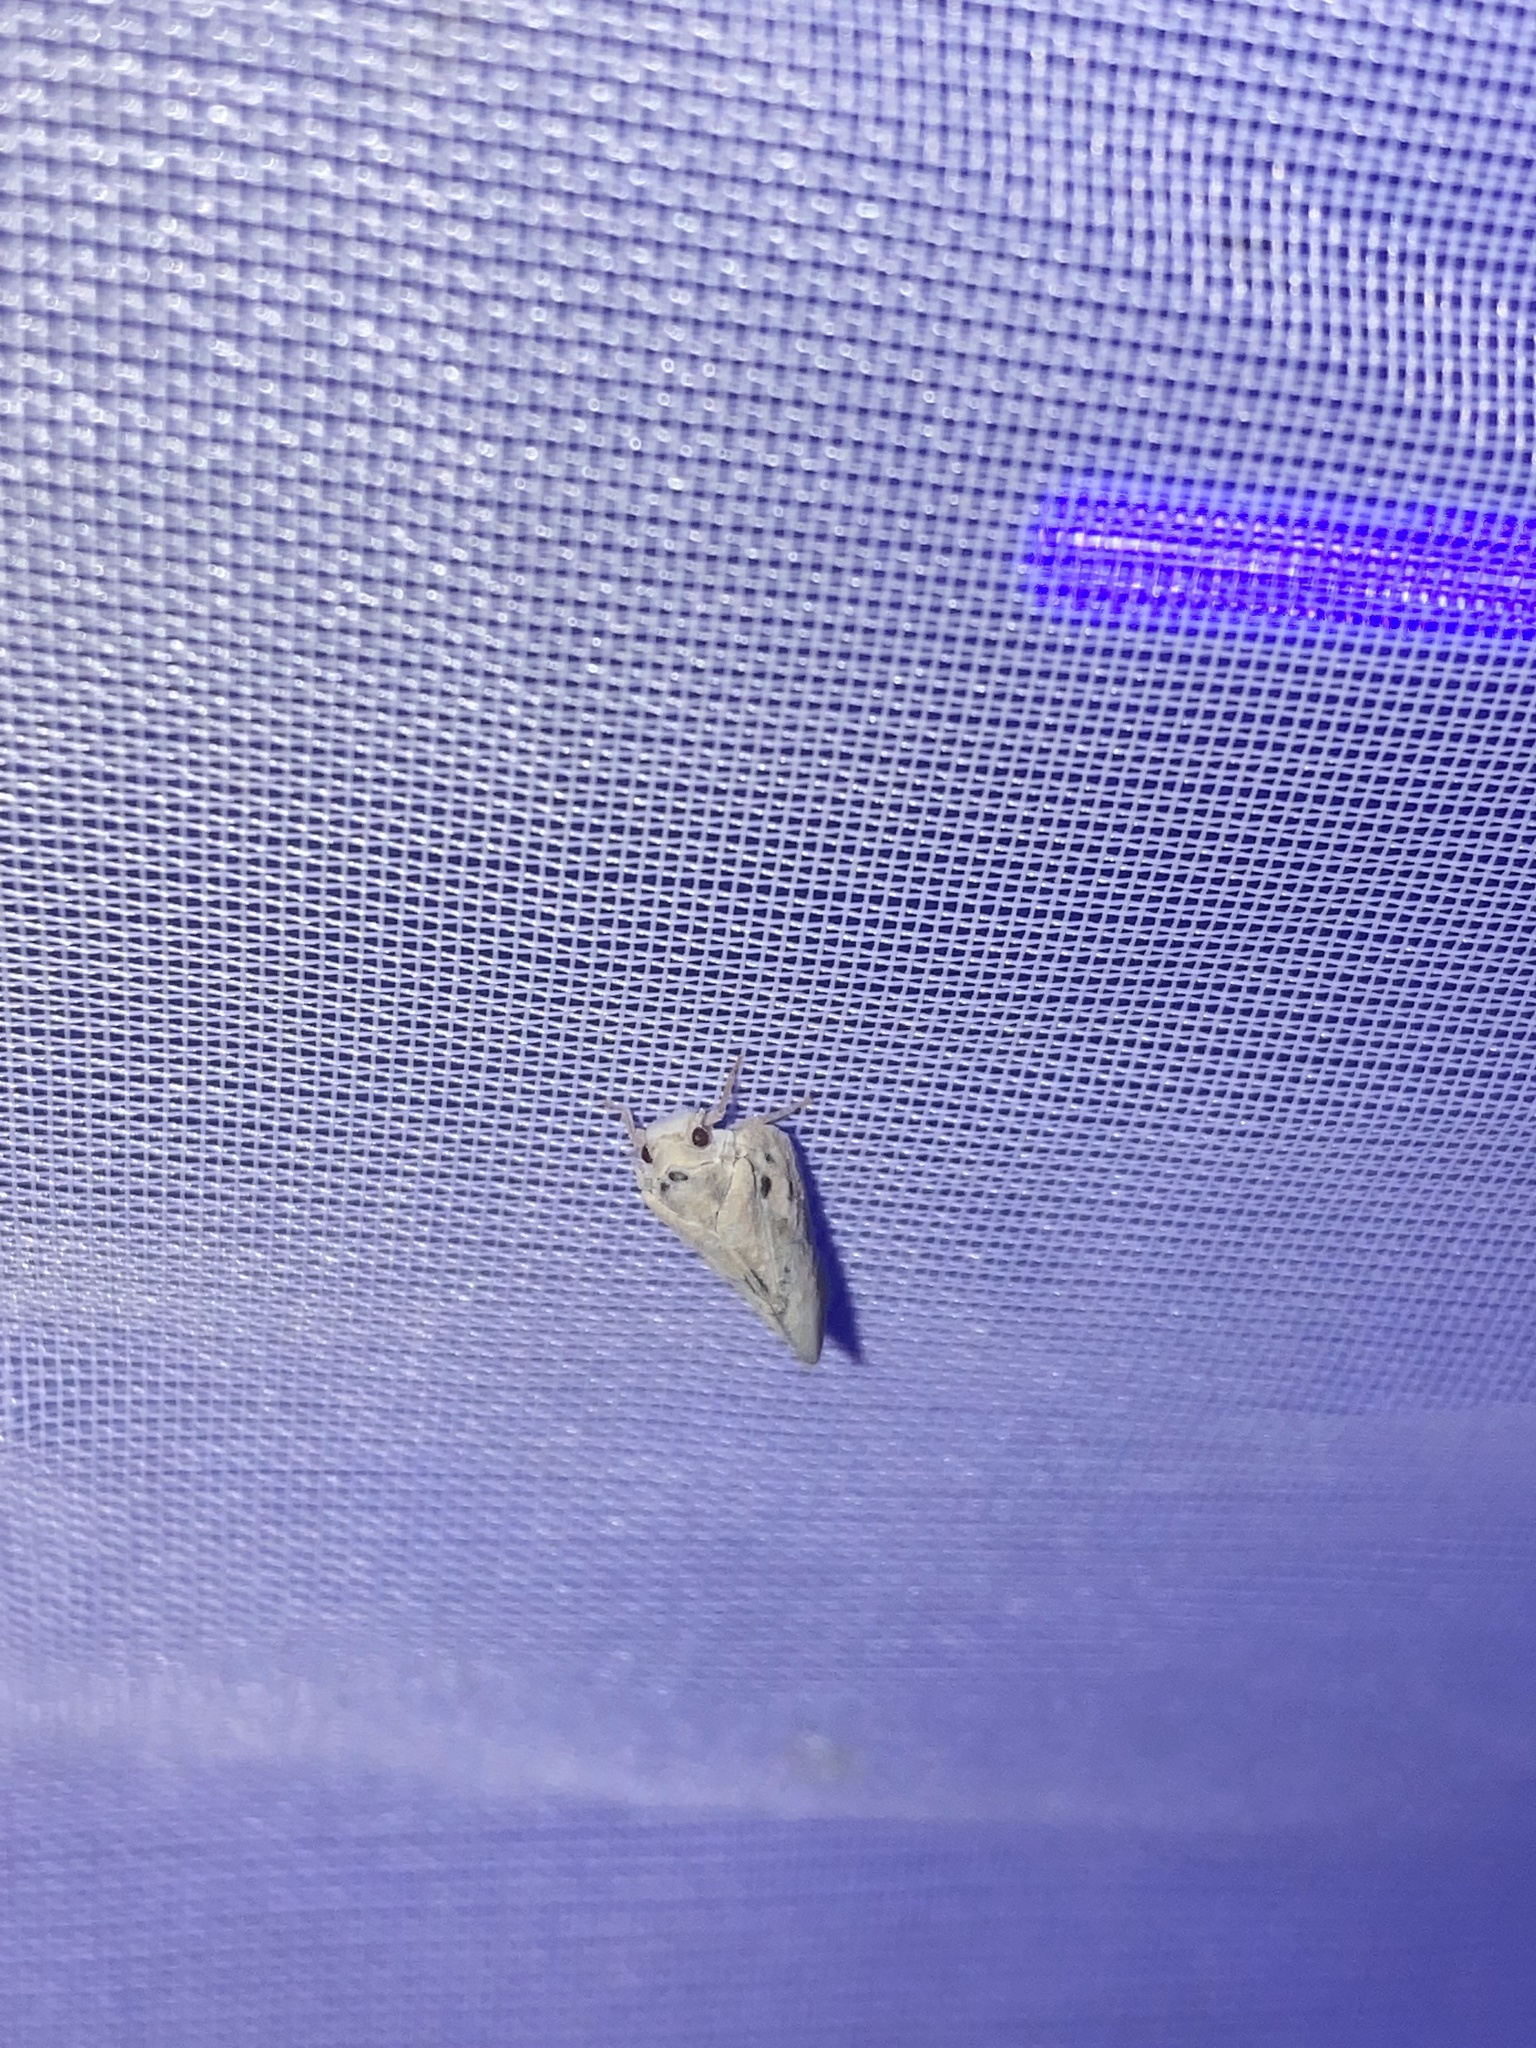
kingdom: Animalia
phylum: Arthropoda
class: Insecta
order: Hemiptera
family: Flatidae
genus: Metcalfa
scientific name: Metcalfa pruinosa
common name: Citrus flatid planthopper
